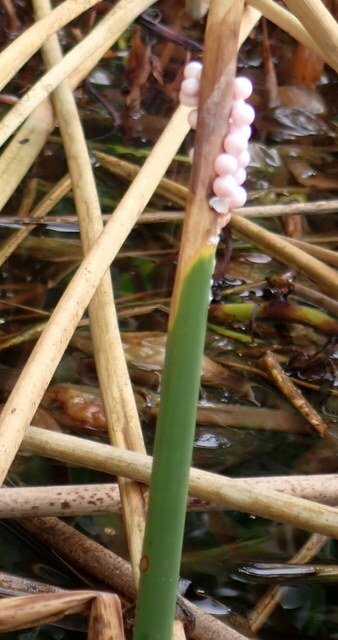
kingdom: Animalia
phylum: Mollusca
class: Gastropoda
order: Architaenioglossa
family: Ampullariidae
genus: Pomacea
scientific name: Pomacea paludosa
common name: Florida applesnail
